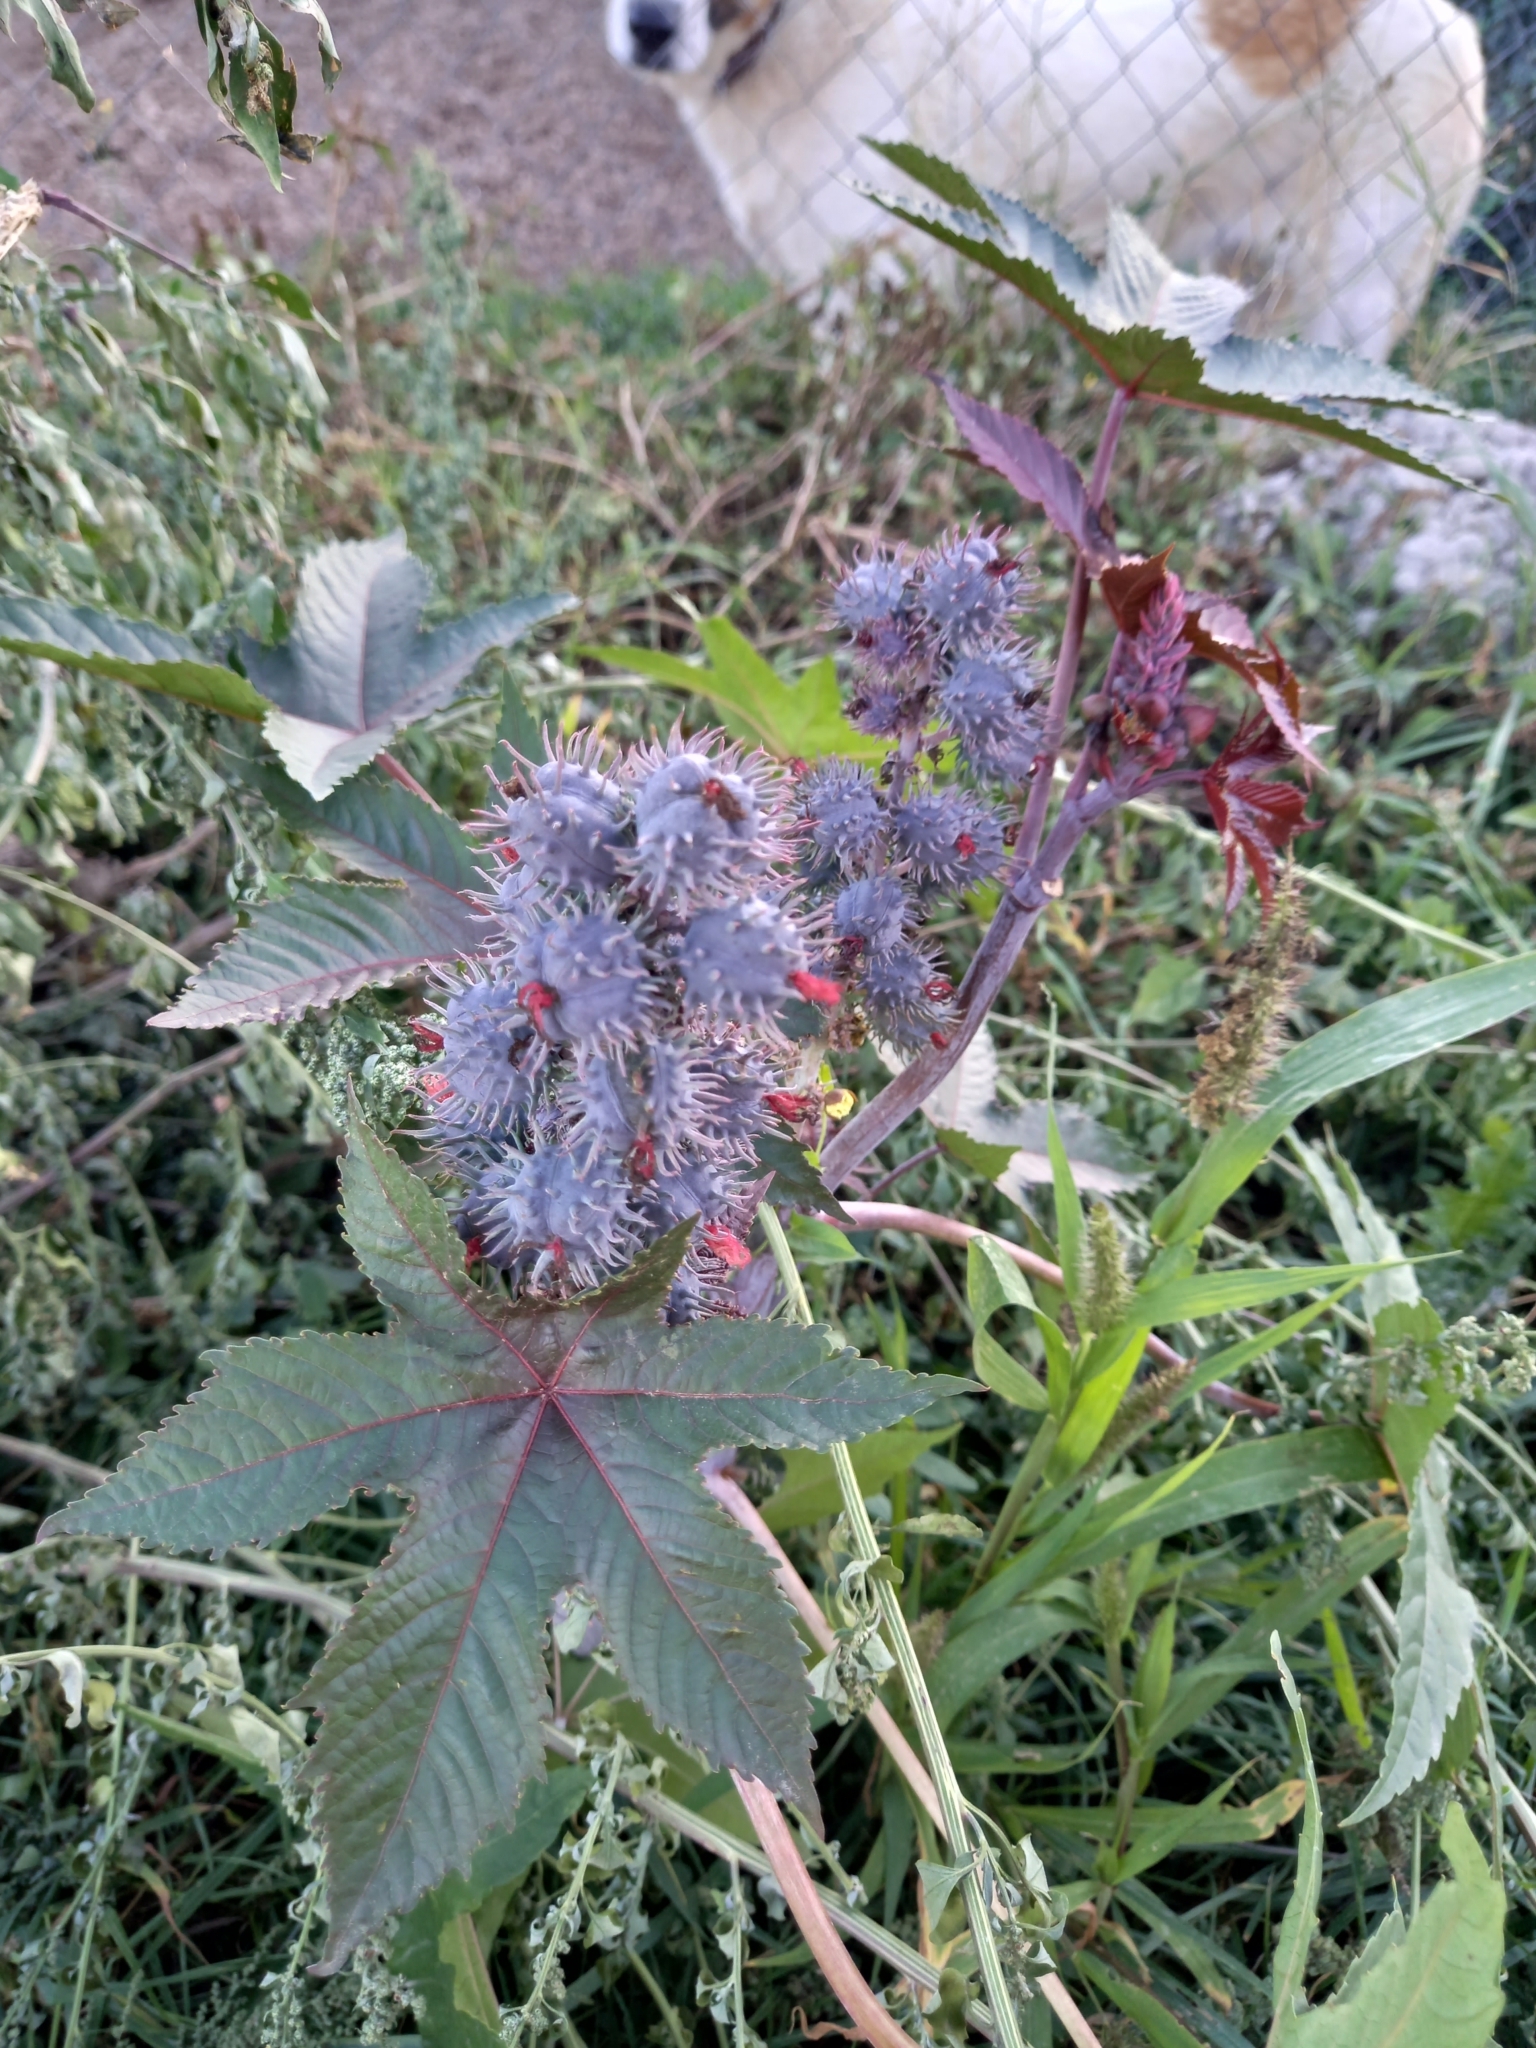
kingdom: Plantae
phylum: Tracheophyta
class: Magnoliopsida
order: Malpighiales
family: Euphorbiaceae
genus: Ricinus
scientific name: Ricinus communis
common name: Castor-oil-plant
